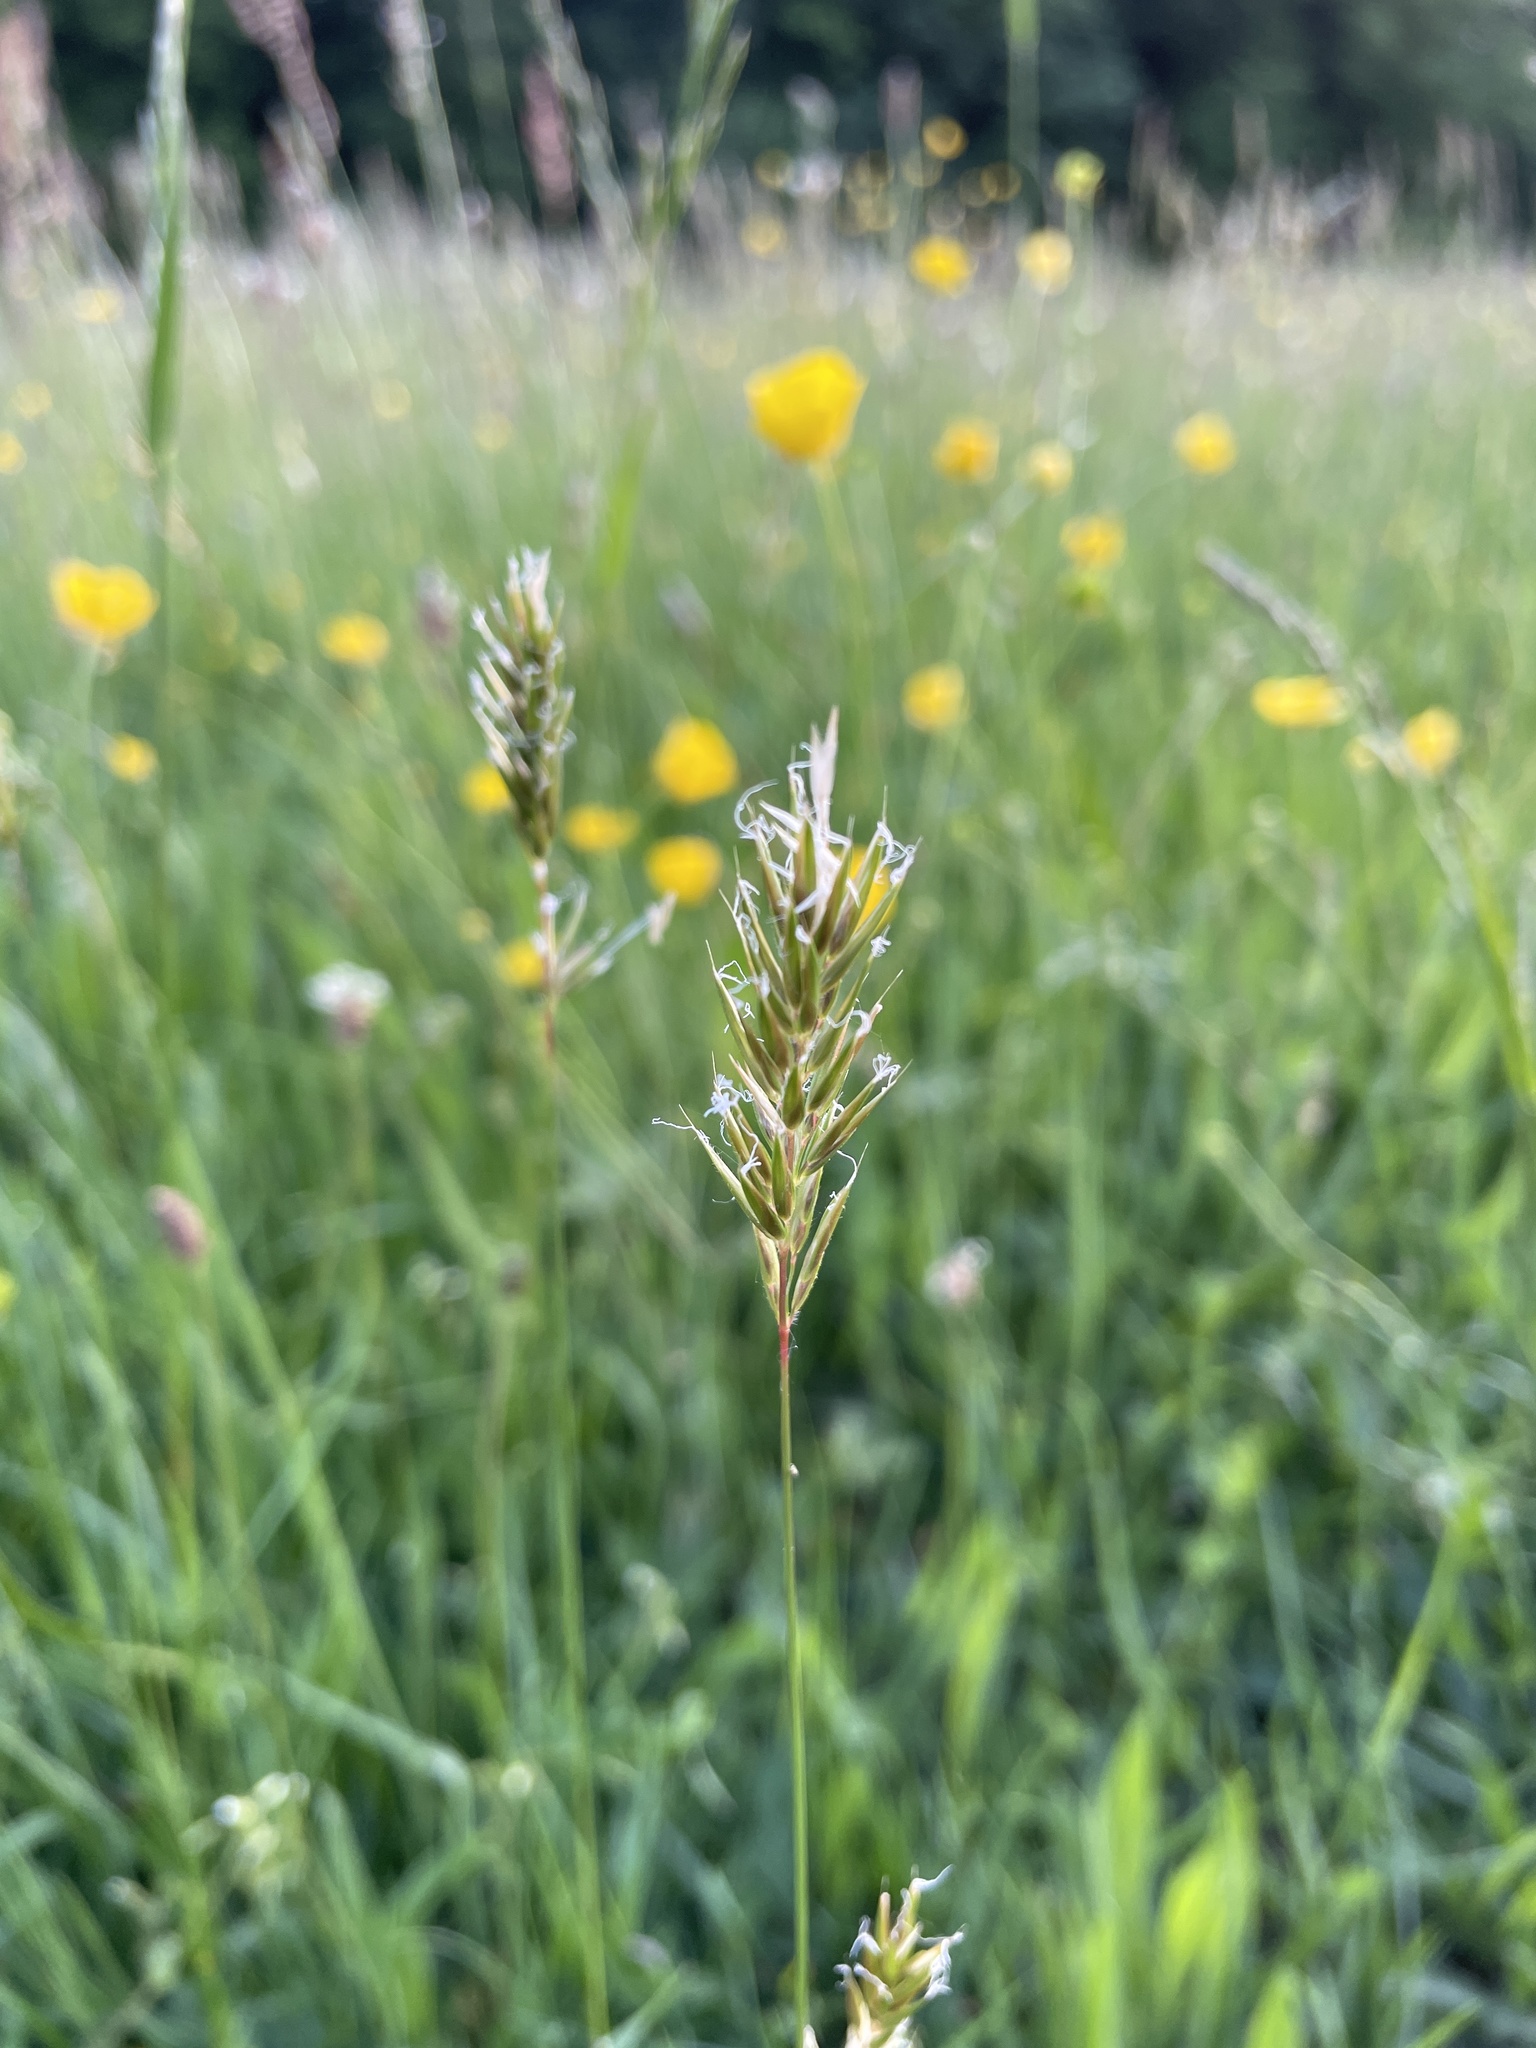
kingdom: Plantae
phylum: Tracheophyta
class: Liliopsida
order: Poales
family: Poaceae
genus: Anthoxanthum
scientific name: Anthoxanthum odoratum
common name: Sweet vernalgrass
